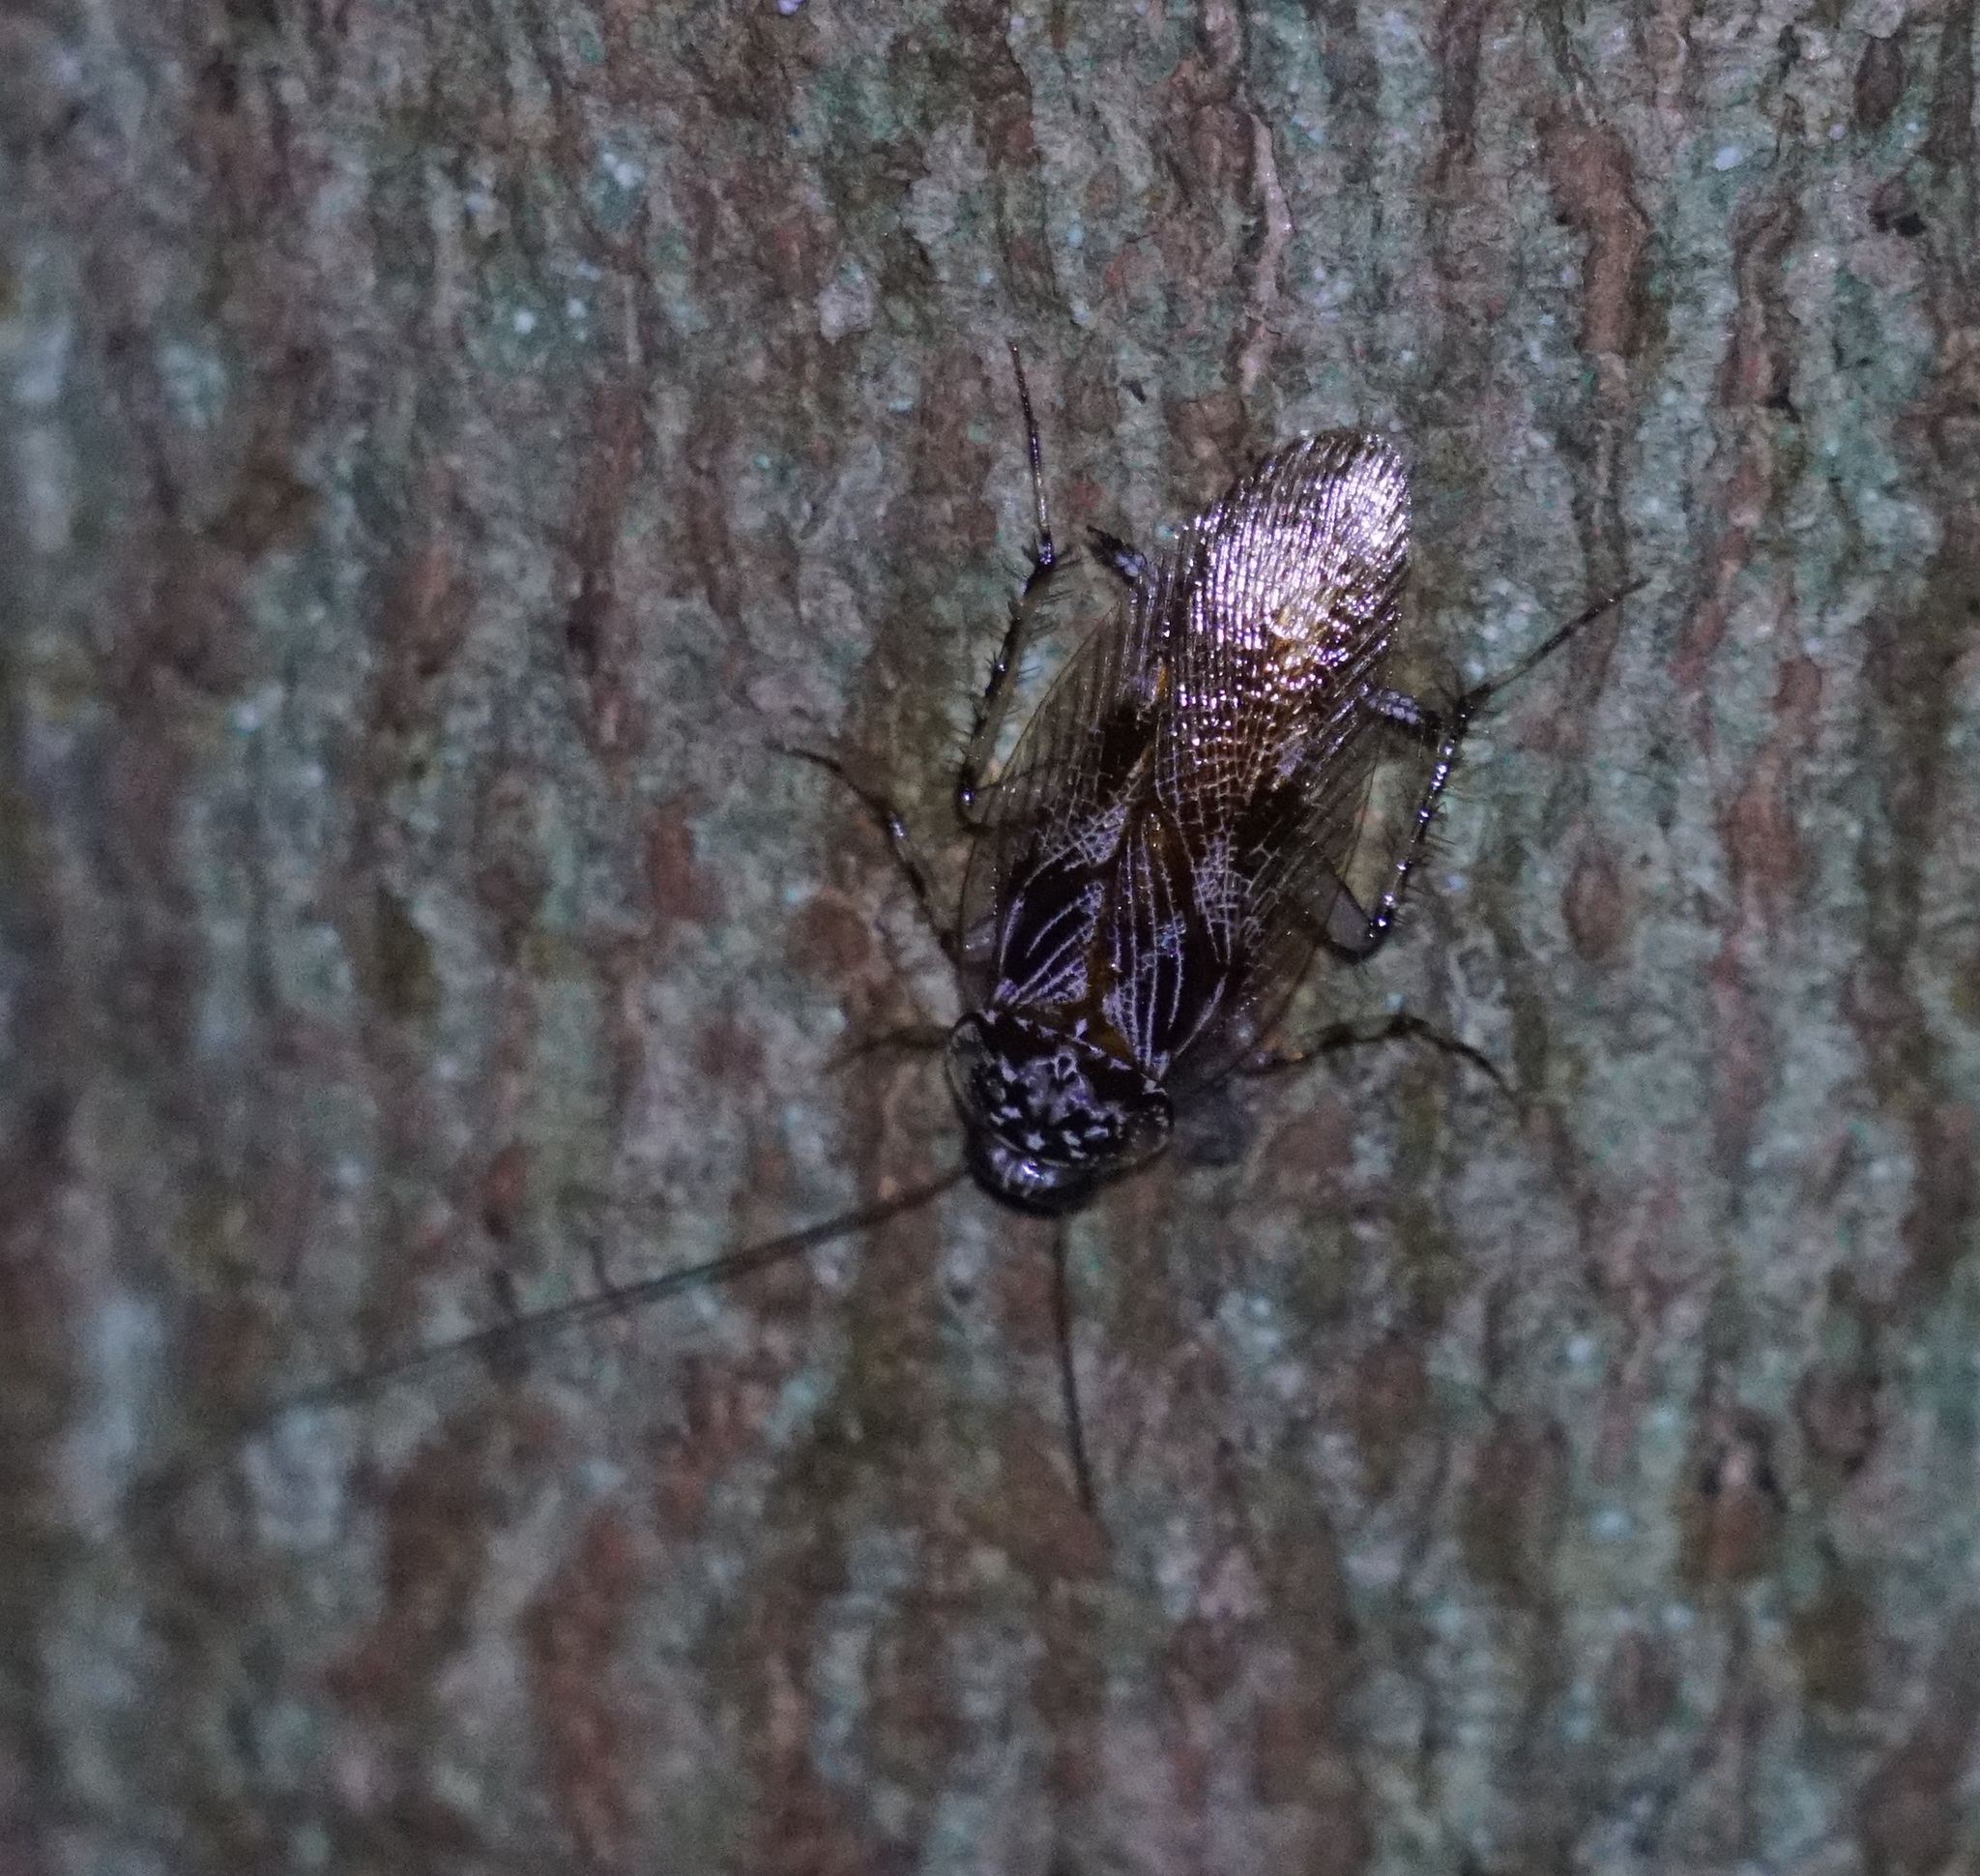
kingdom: Animalia
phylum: Arthropoda
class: Insecta
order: Blattodea
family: Ectobiidae
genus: Allacta
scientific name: Allacta australiensis
